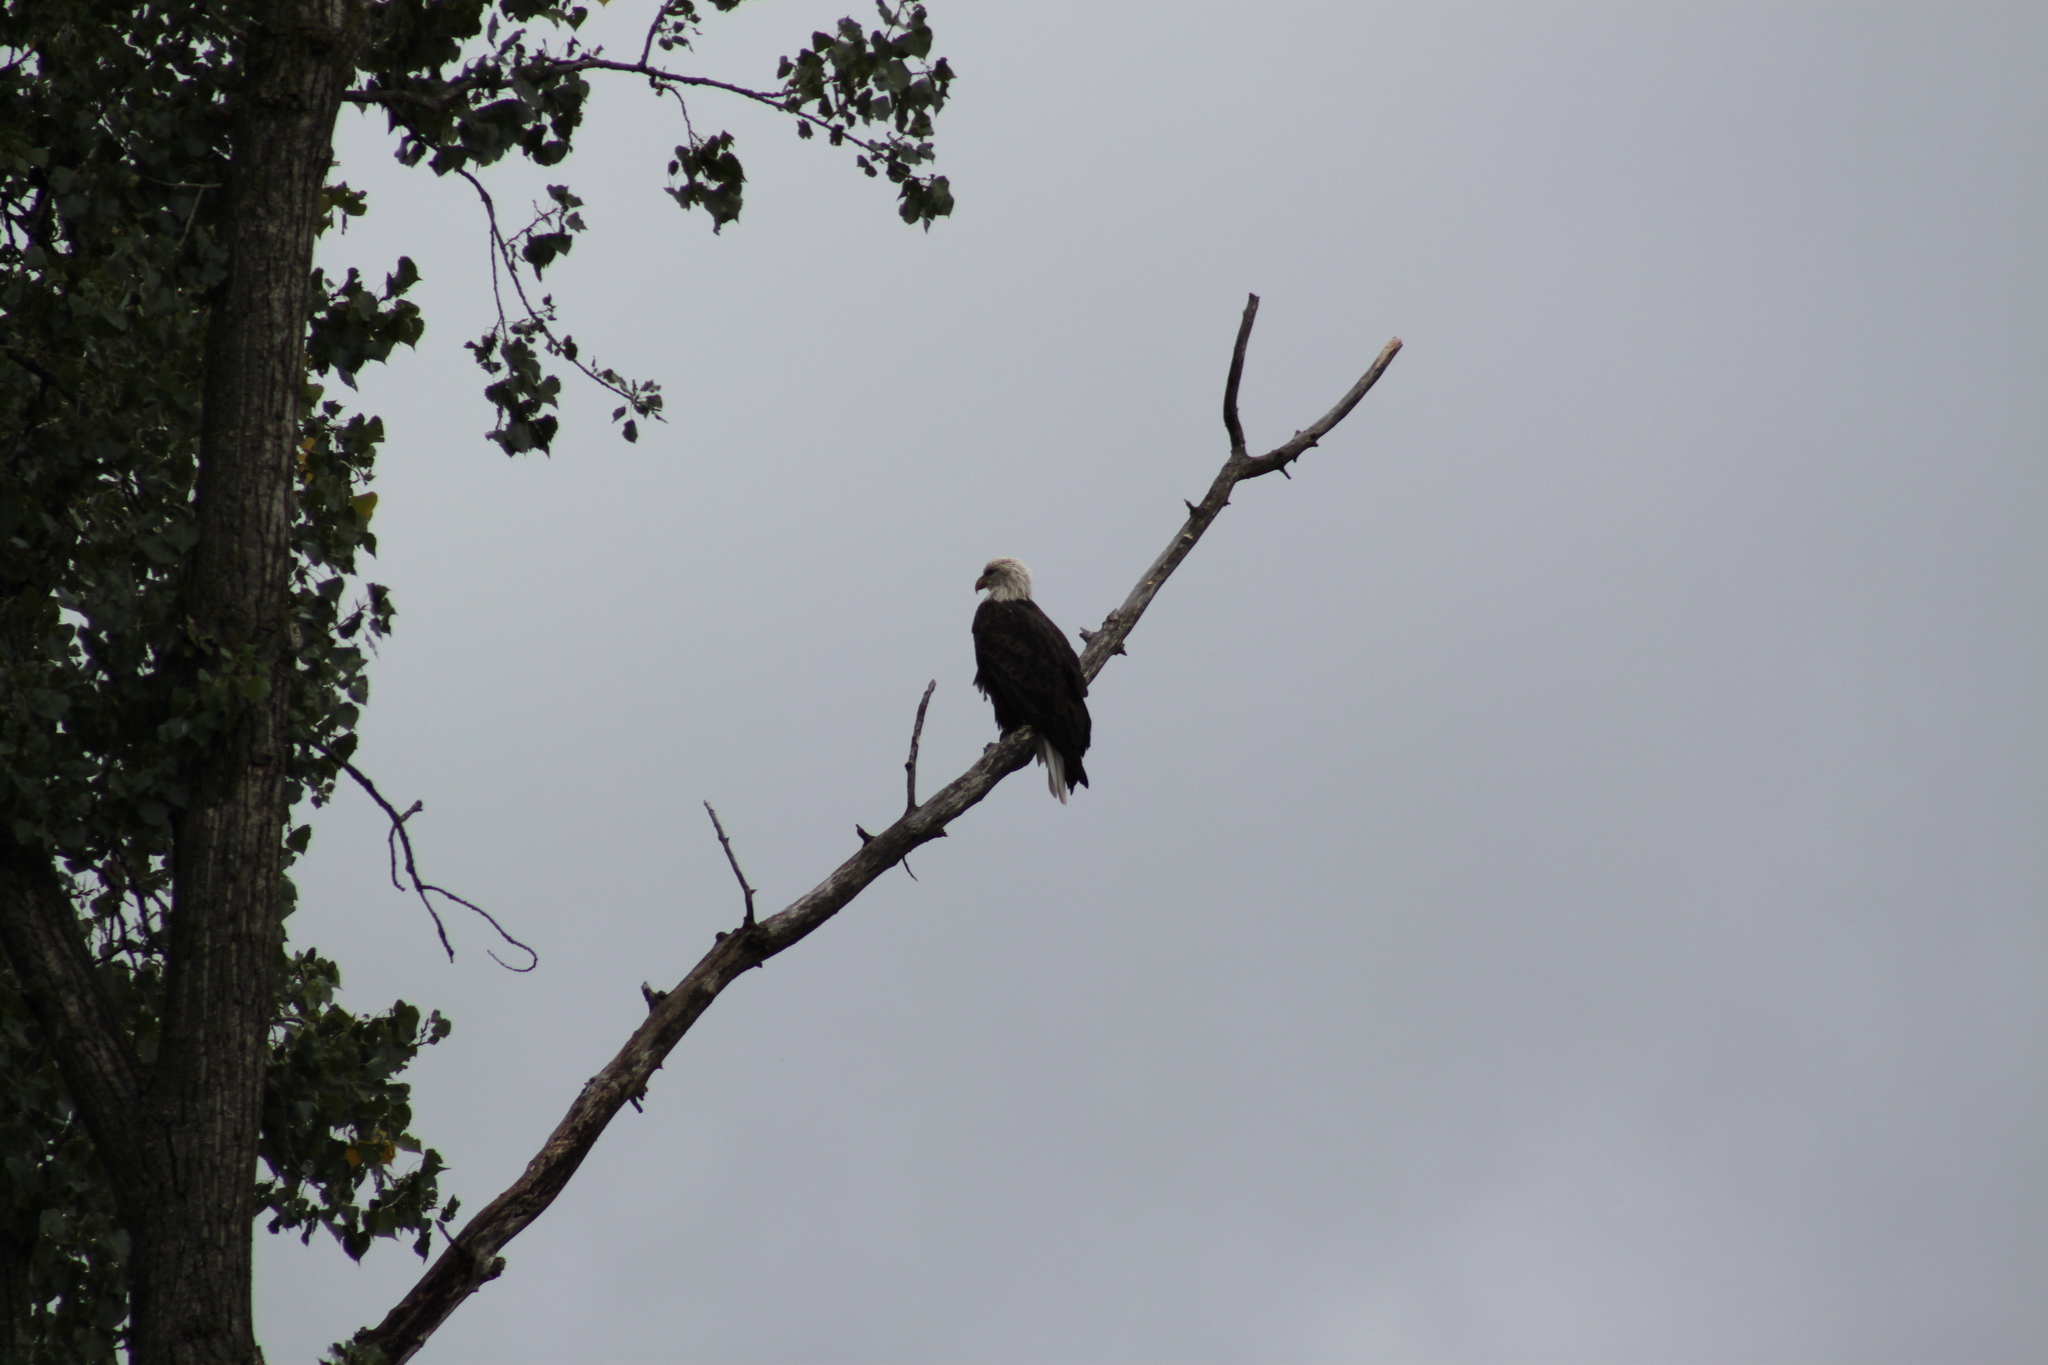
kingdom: Animalia
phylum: Chordata
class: Aves
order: Accipitriformes
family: Accipitridae
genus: Haliaeetus
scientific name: Haliaeetus leucocephalus
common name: Bald eagle
